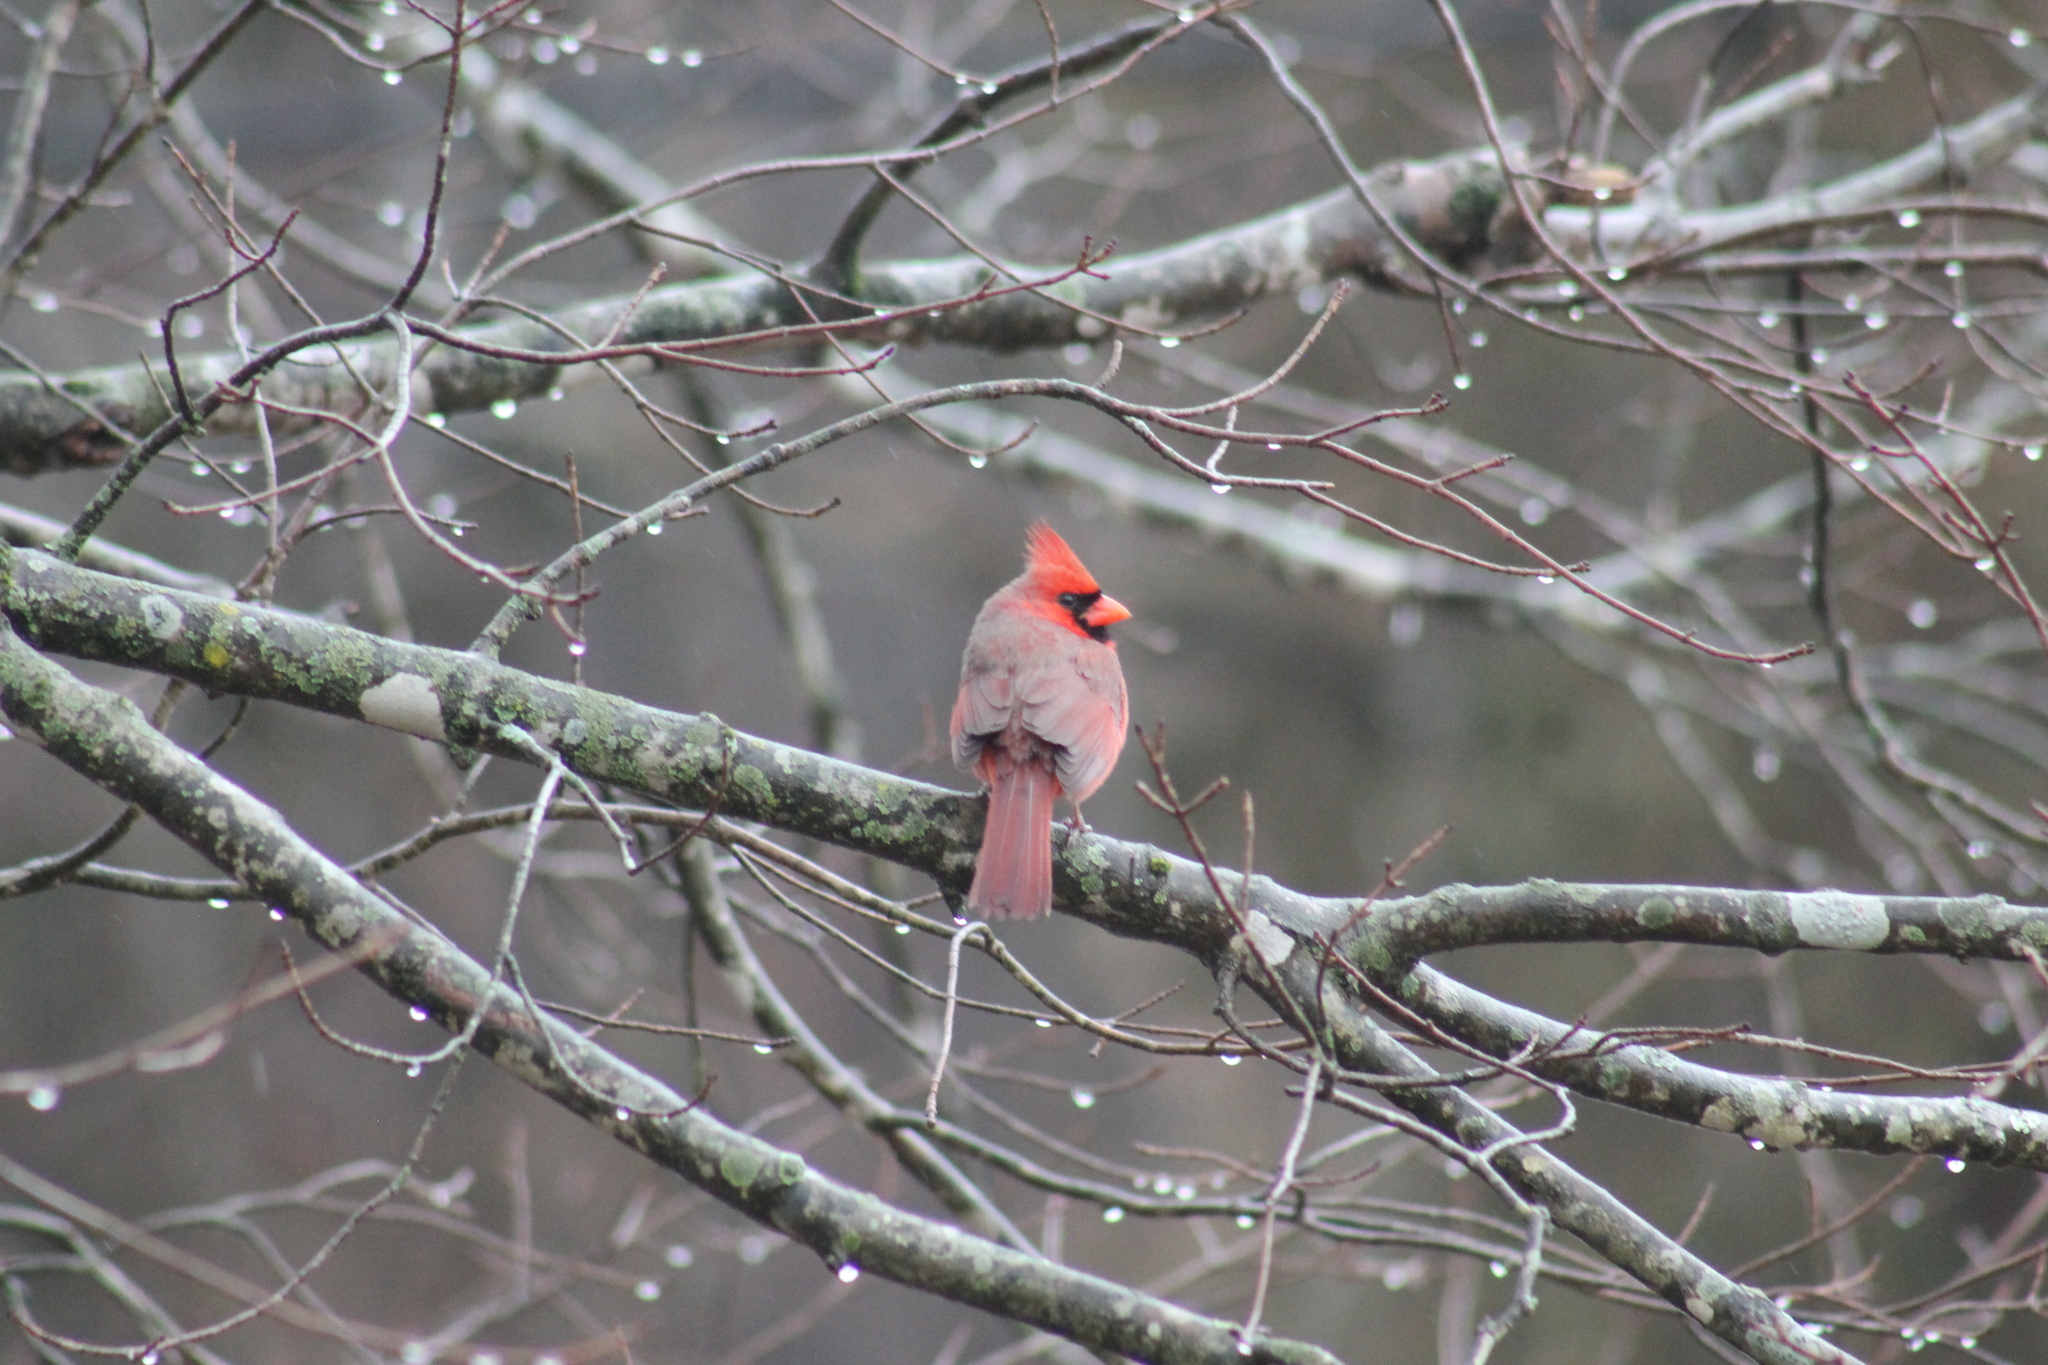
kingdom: Animalia
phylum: Chordata
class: Aves
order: Passeriformes
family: Cardinalidae
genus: Cardinalis
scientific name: Cardinalis cardinalis
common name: Northern cardinal
